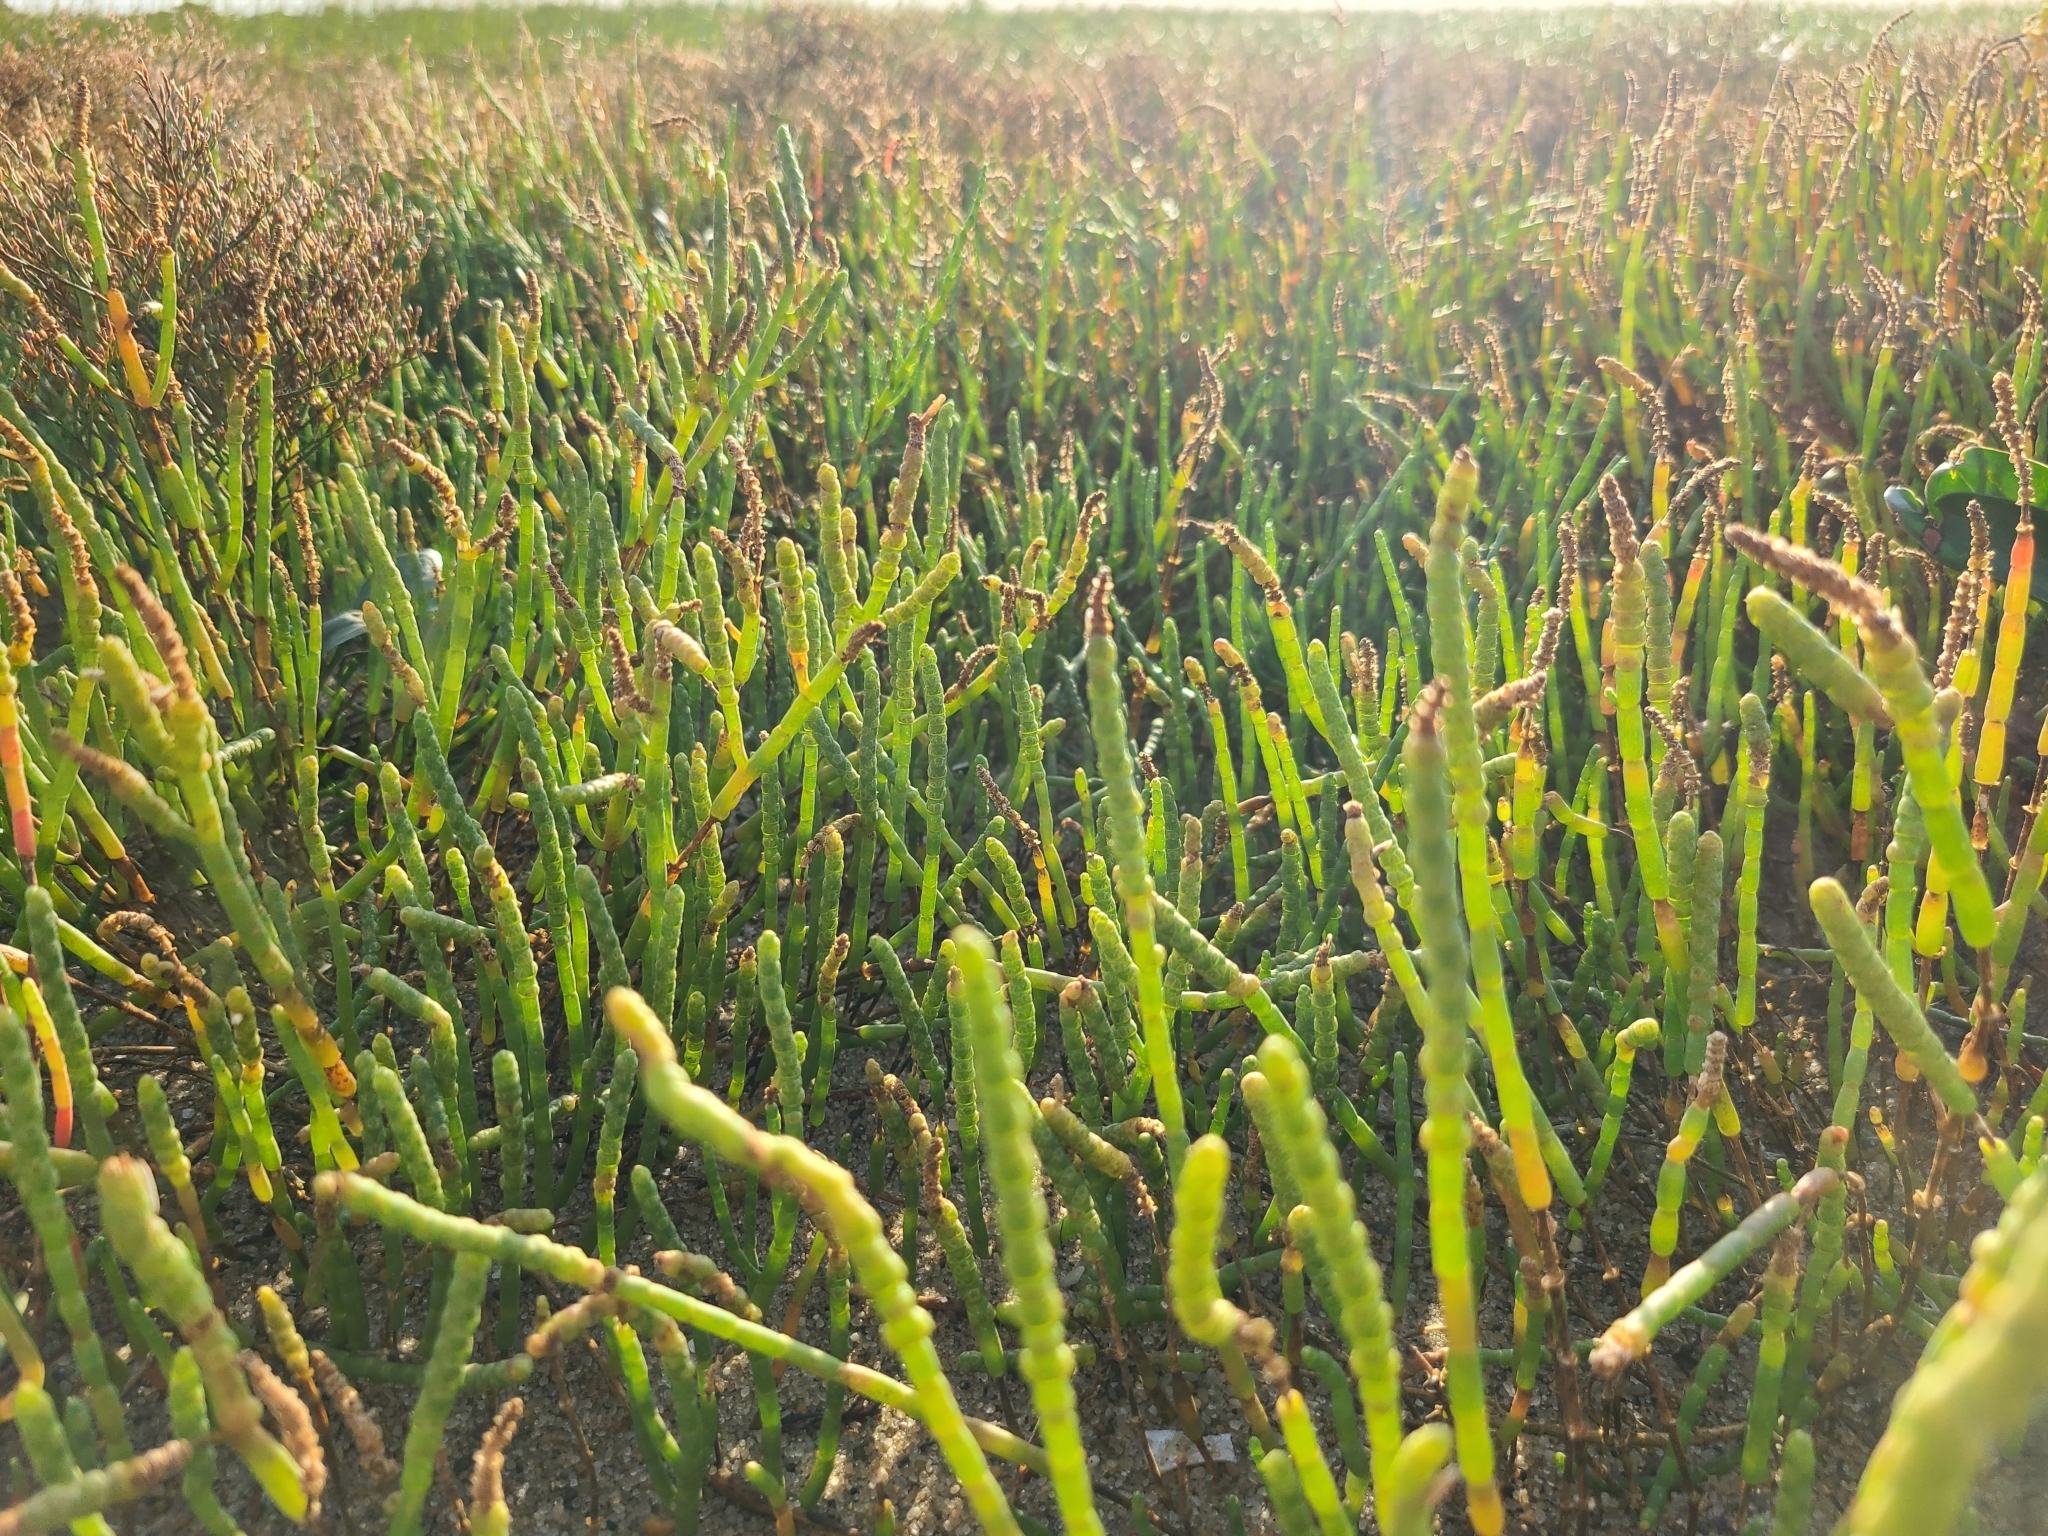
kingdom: Plantae
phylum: Tracheophyta
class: Magnoliopsida
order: Caryophyllales
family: Amaranthaceae
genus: Salicornia
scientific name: Salicornia perennis
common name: Chicken claws
